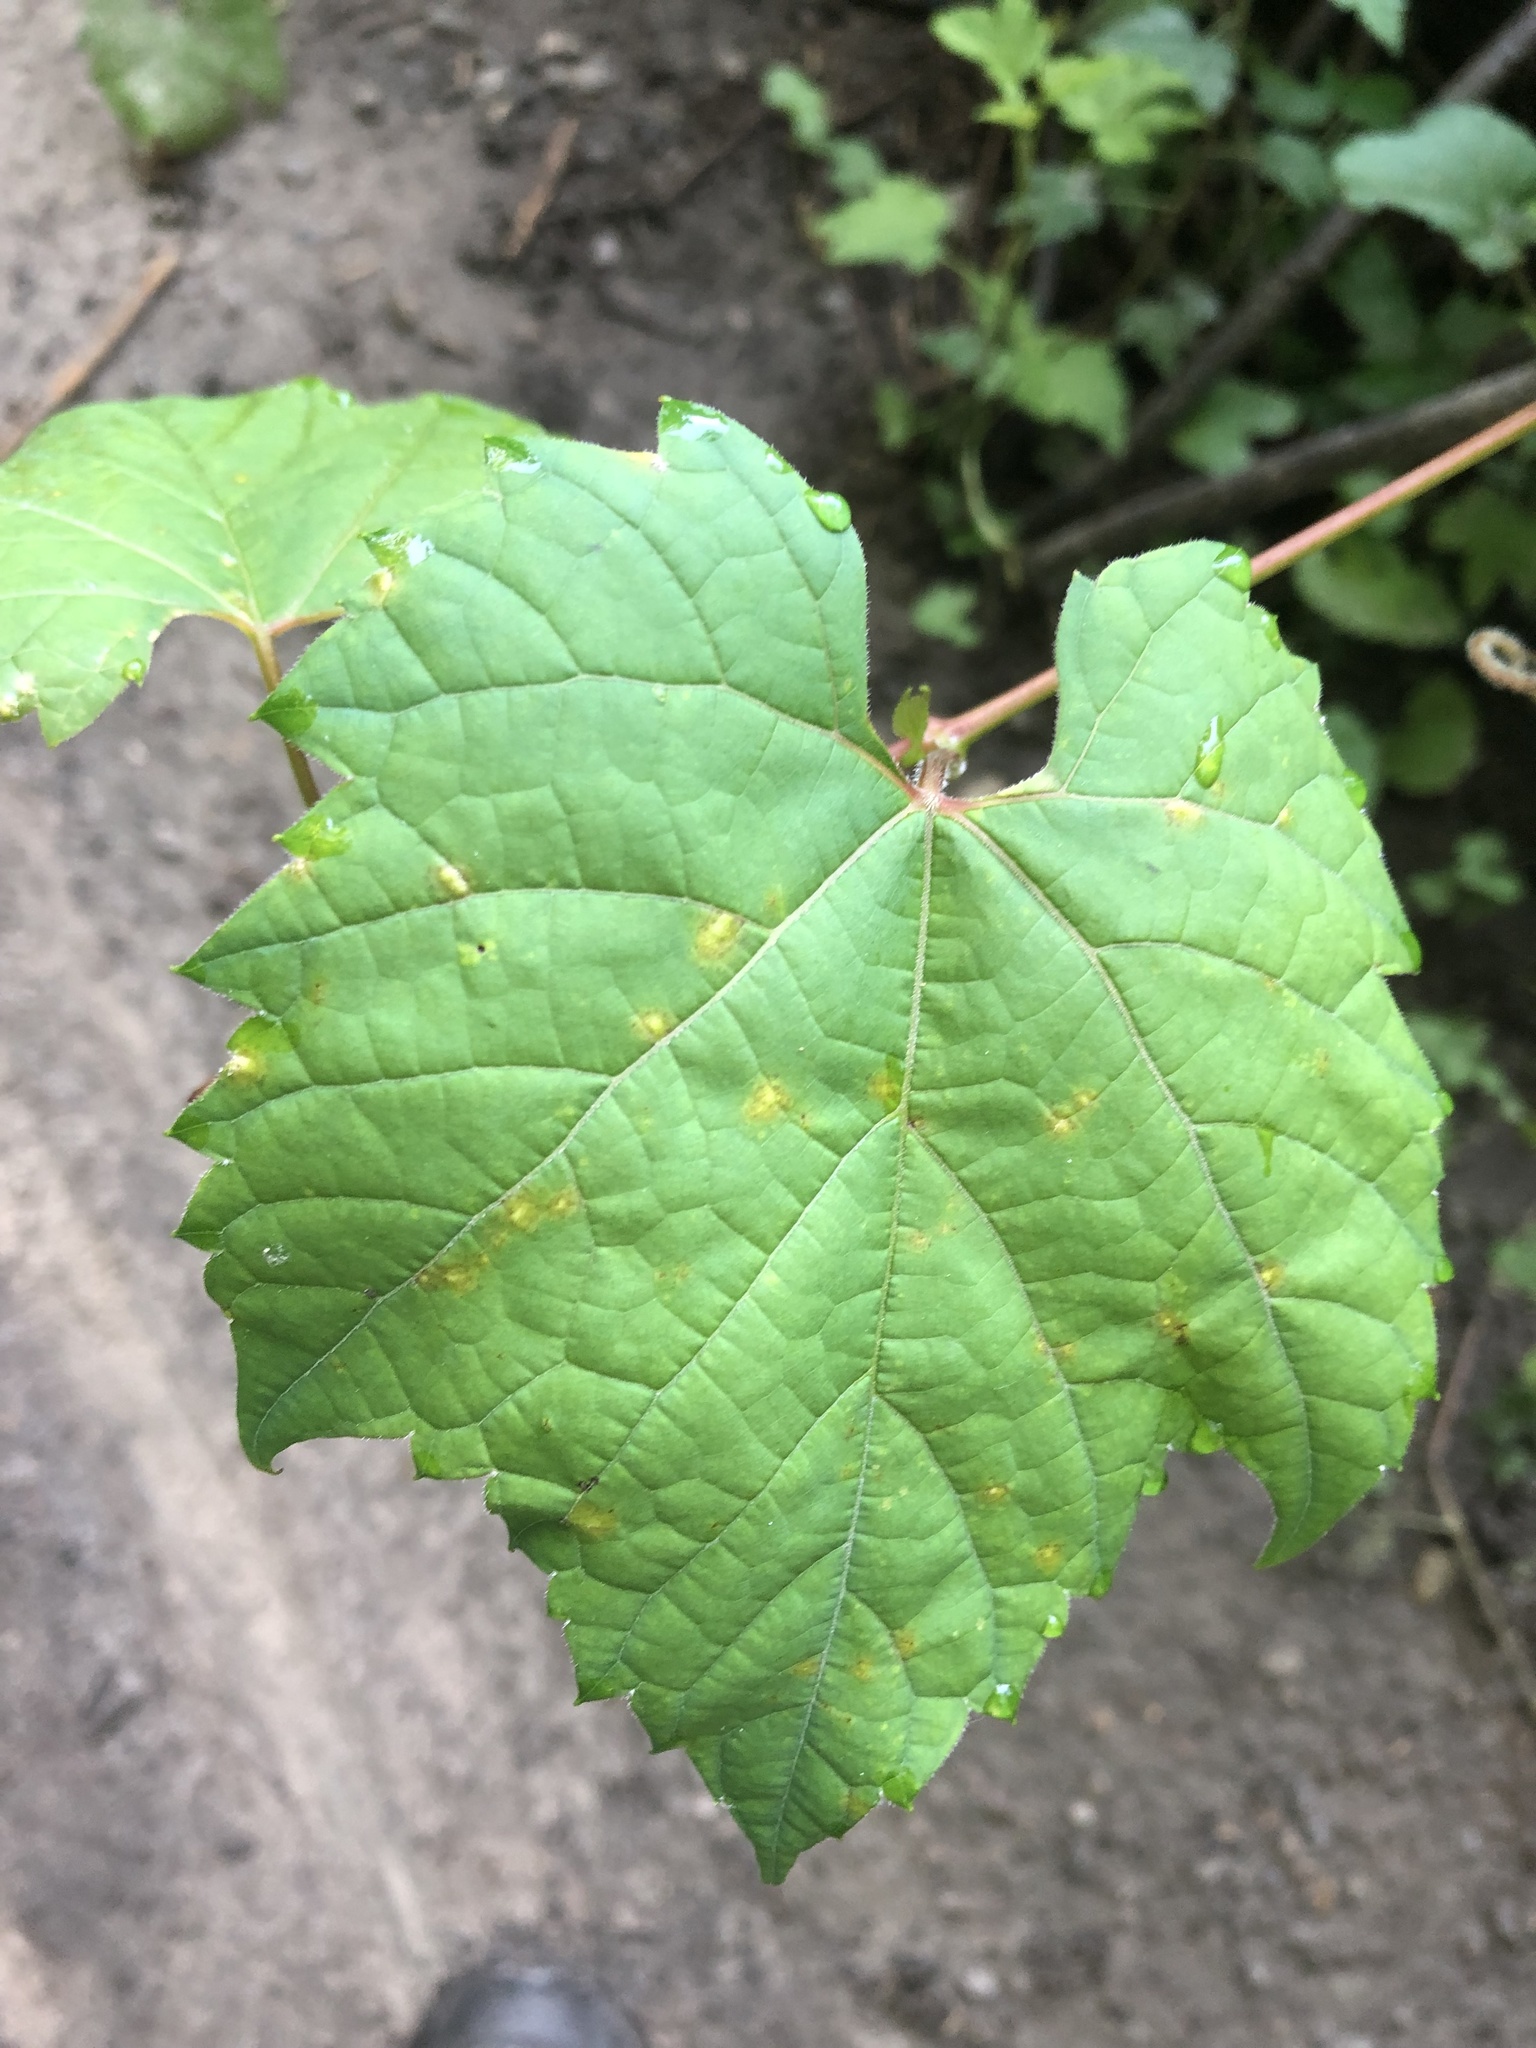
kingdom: Plantae
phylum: Tracheophyta
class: Magnoliopsida
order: Vitales
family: Vitaceae
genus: Vitis
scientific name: Vitis riparia
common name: Frost grape
